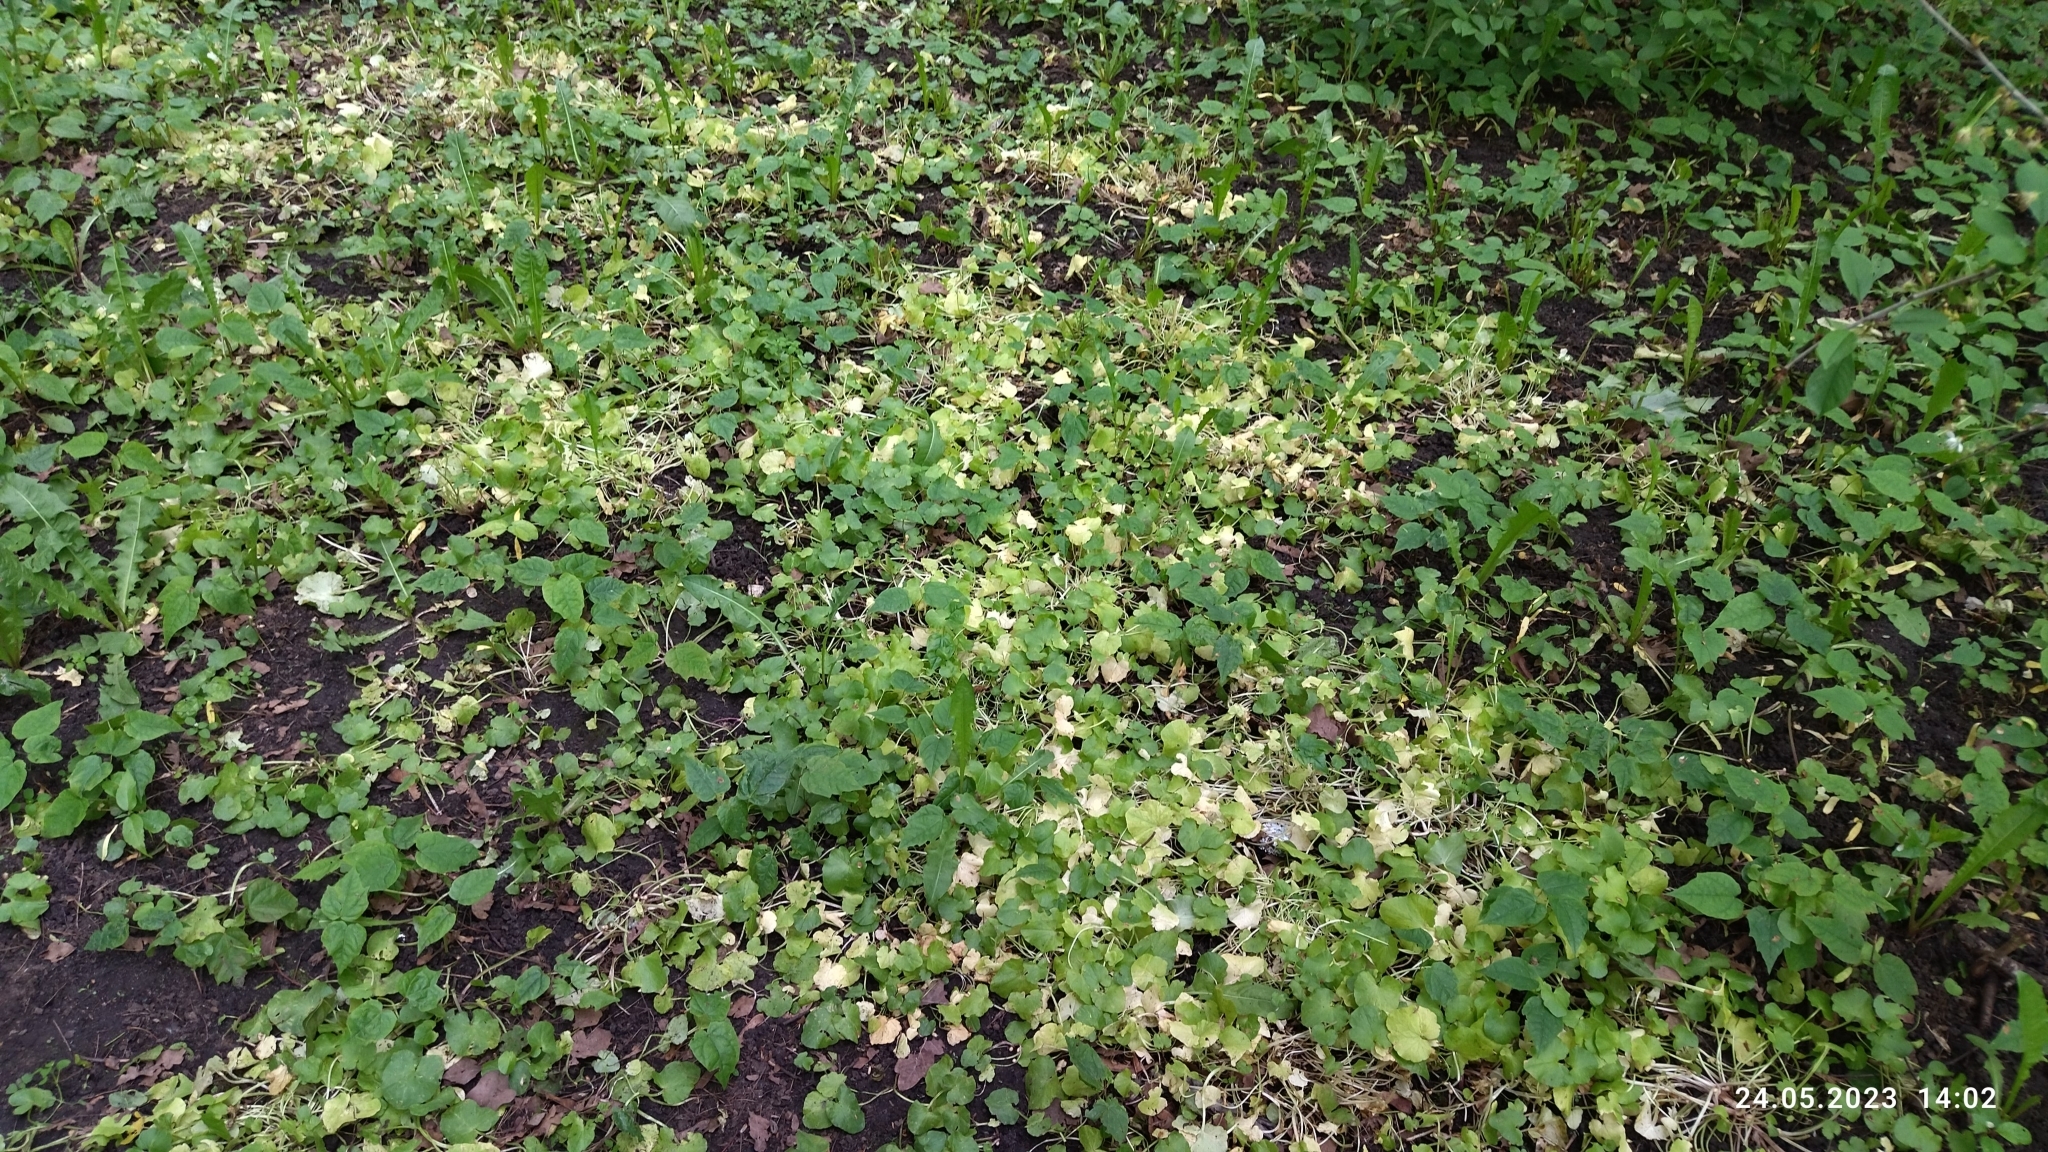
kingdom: Plantae
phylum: Tracheophyta
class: Magnoliopsida
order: Ranunculales
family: Ranunculaceae
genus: Ficaria
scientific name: Ficaria verna
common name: Lesser celandine
